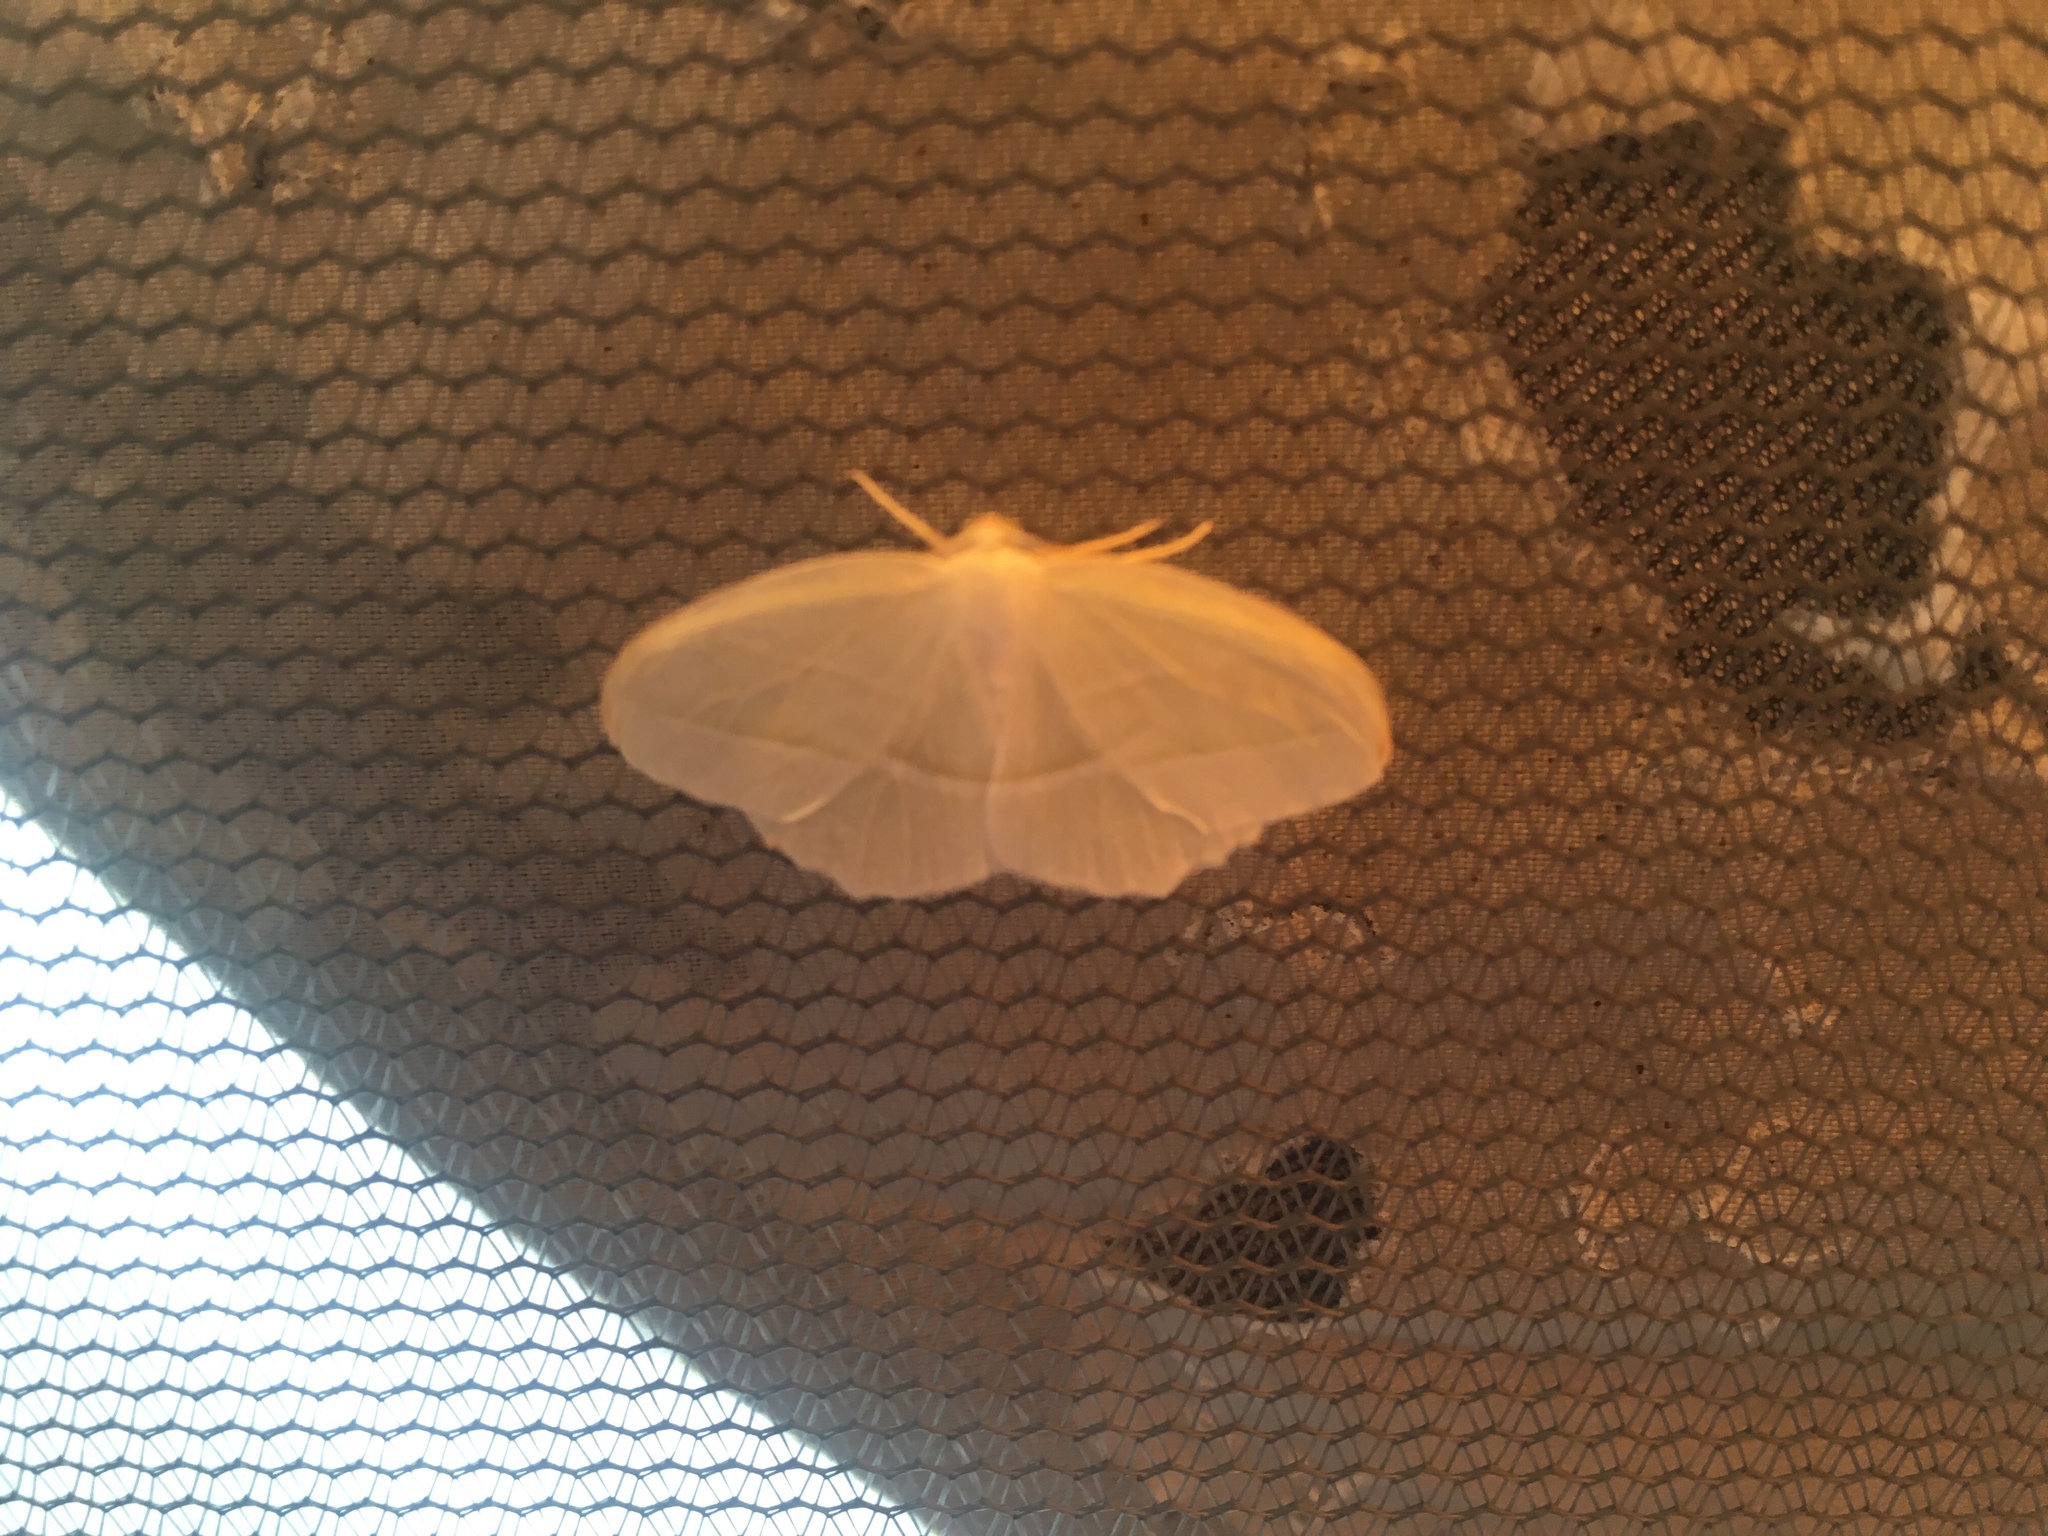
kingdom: Animalia
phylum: Arthropoda
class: Insecta
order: Lepidoptera
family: Geometridae
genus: Campaea
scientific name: Campaea perlata
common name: Fringed looper
